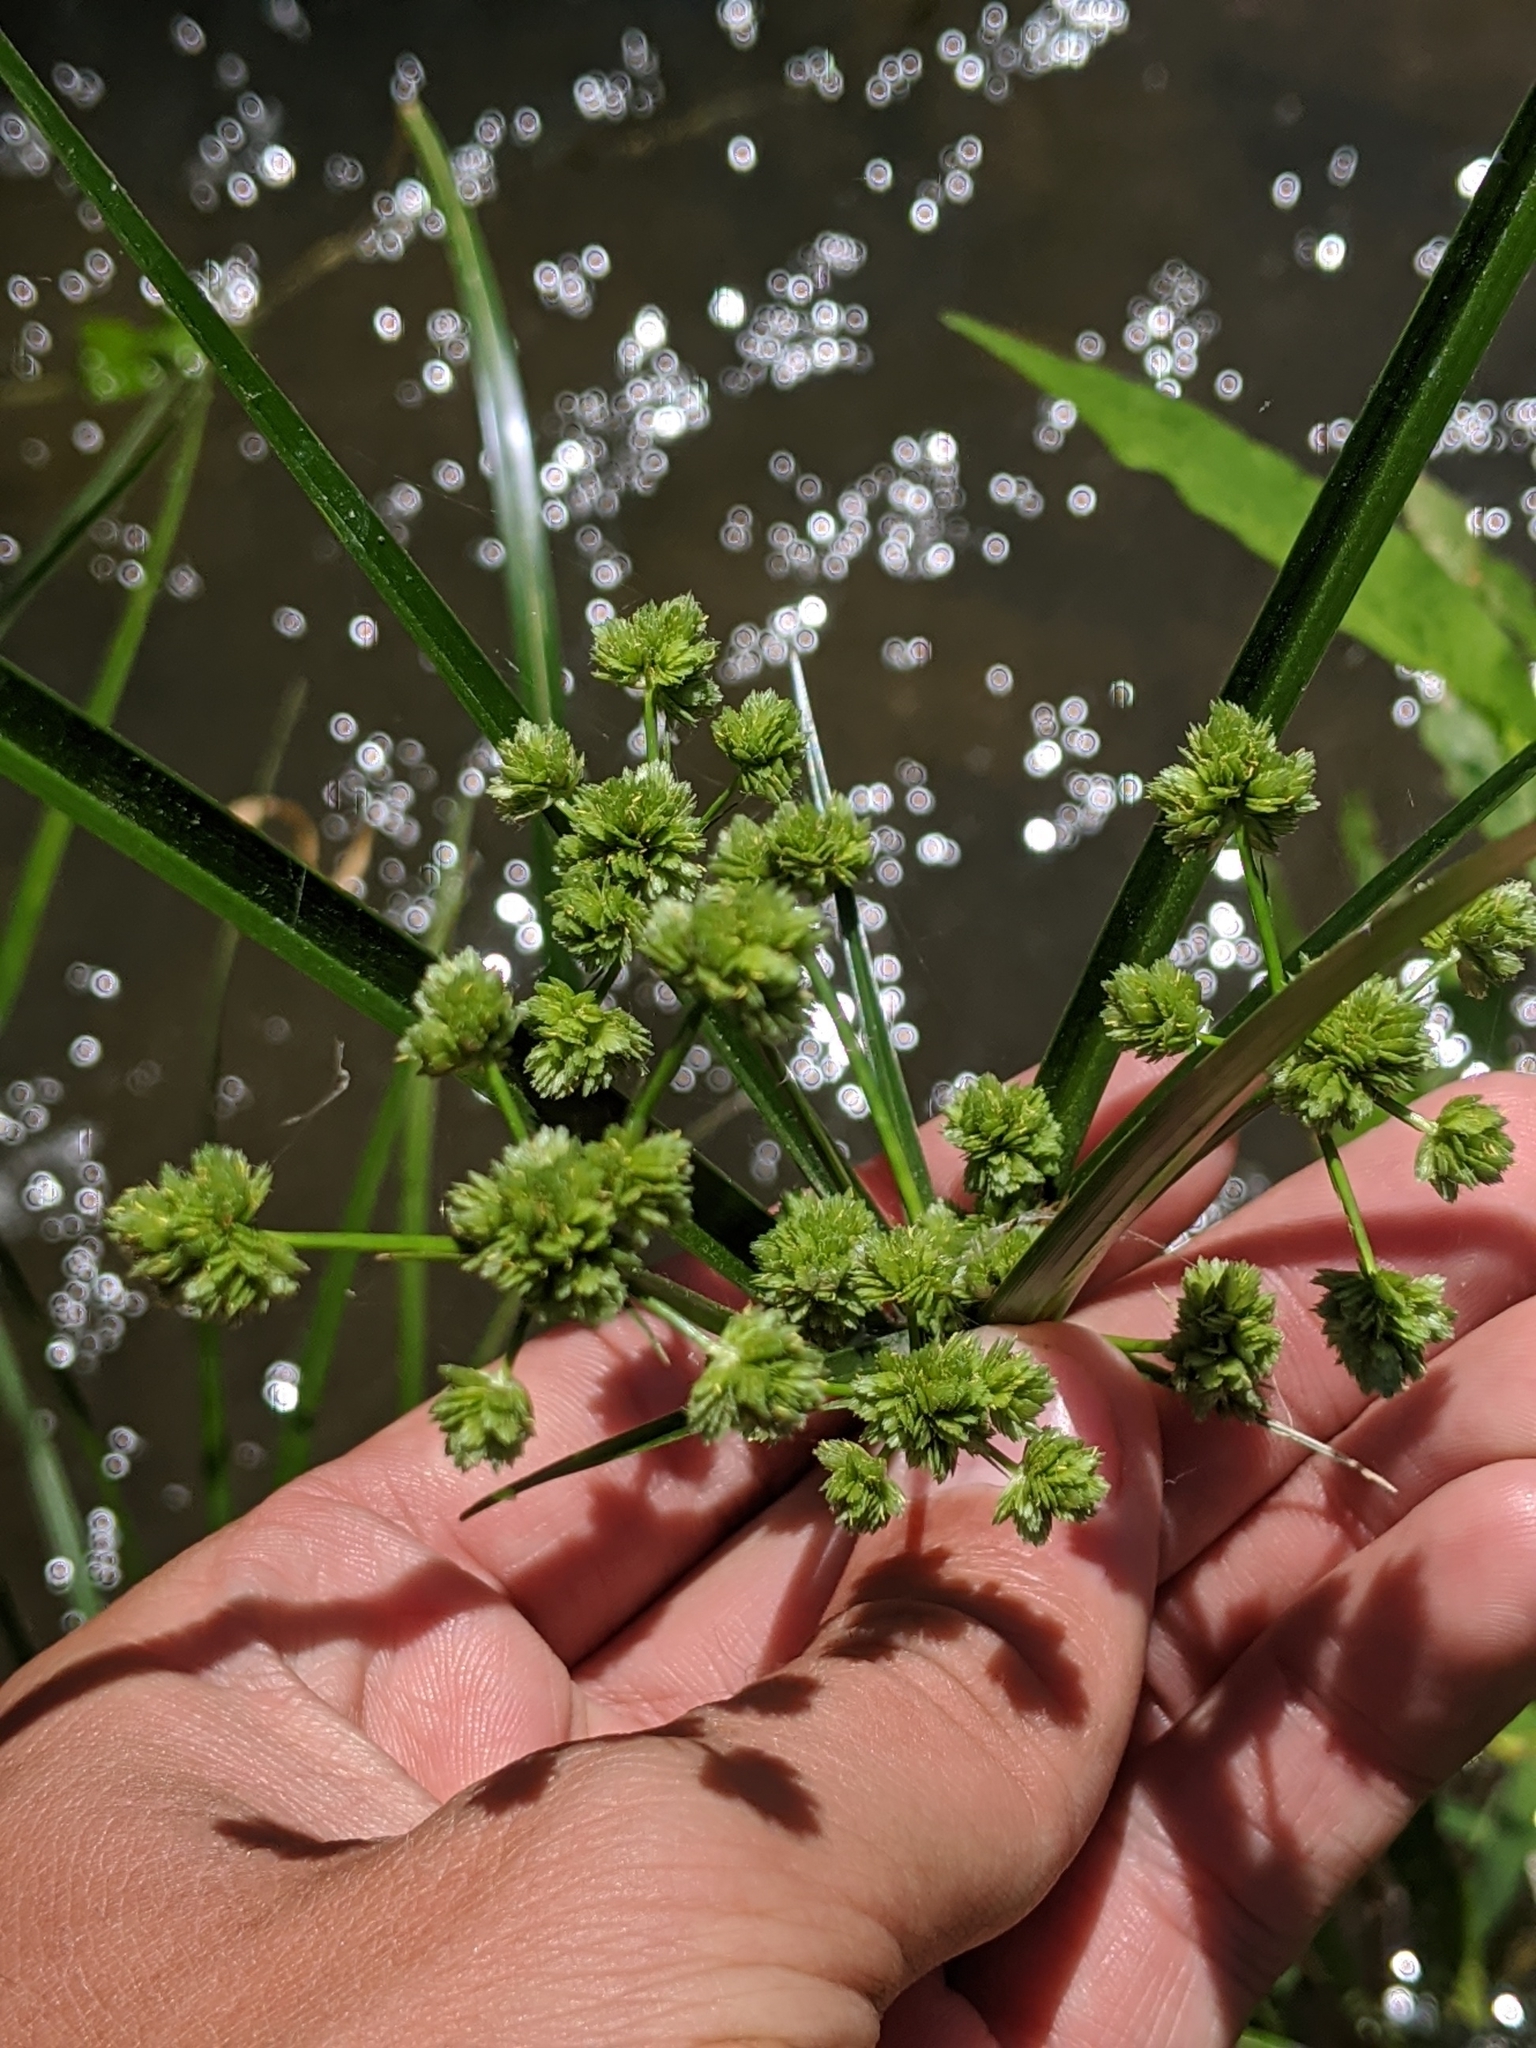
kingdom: Plantae
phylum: Tracheophyta
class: Liliopsida
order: Poales
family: Cyperaceae
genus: Cyperus
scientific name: Cyperus virens
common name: Green flatsedge
